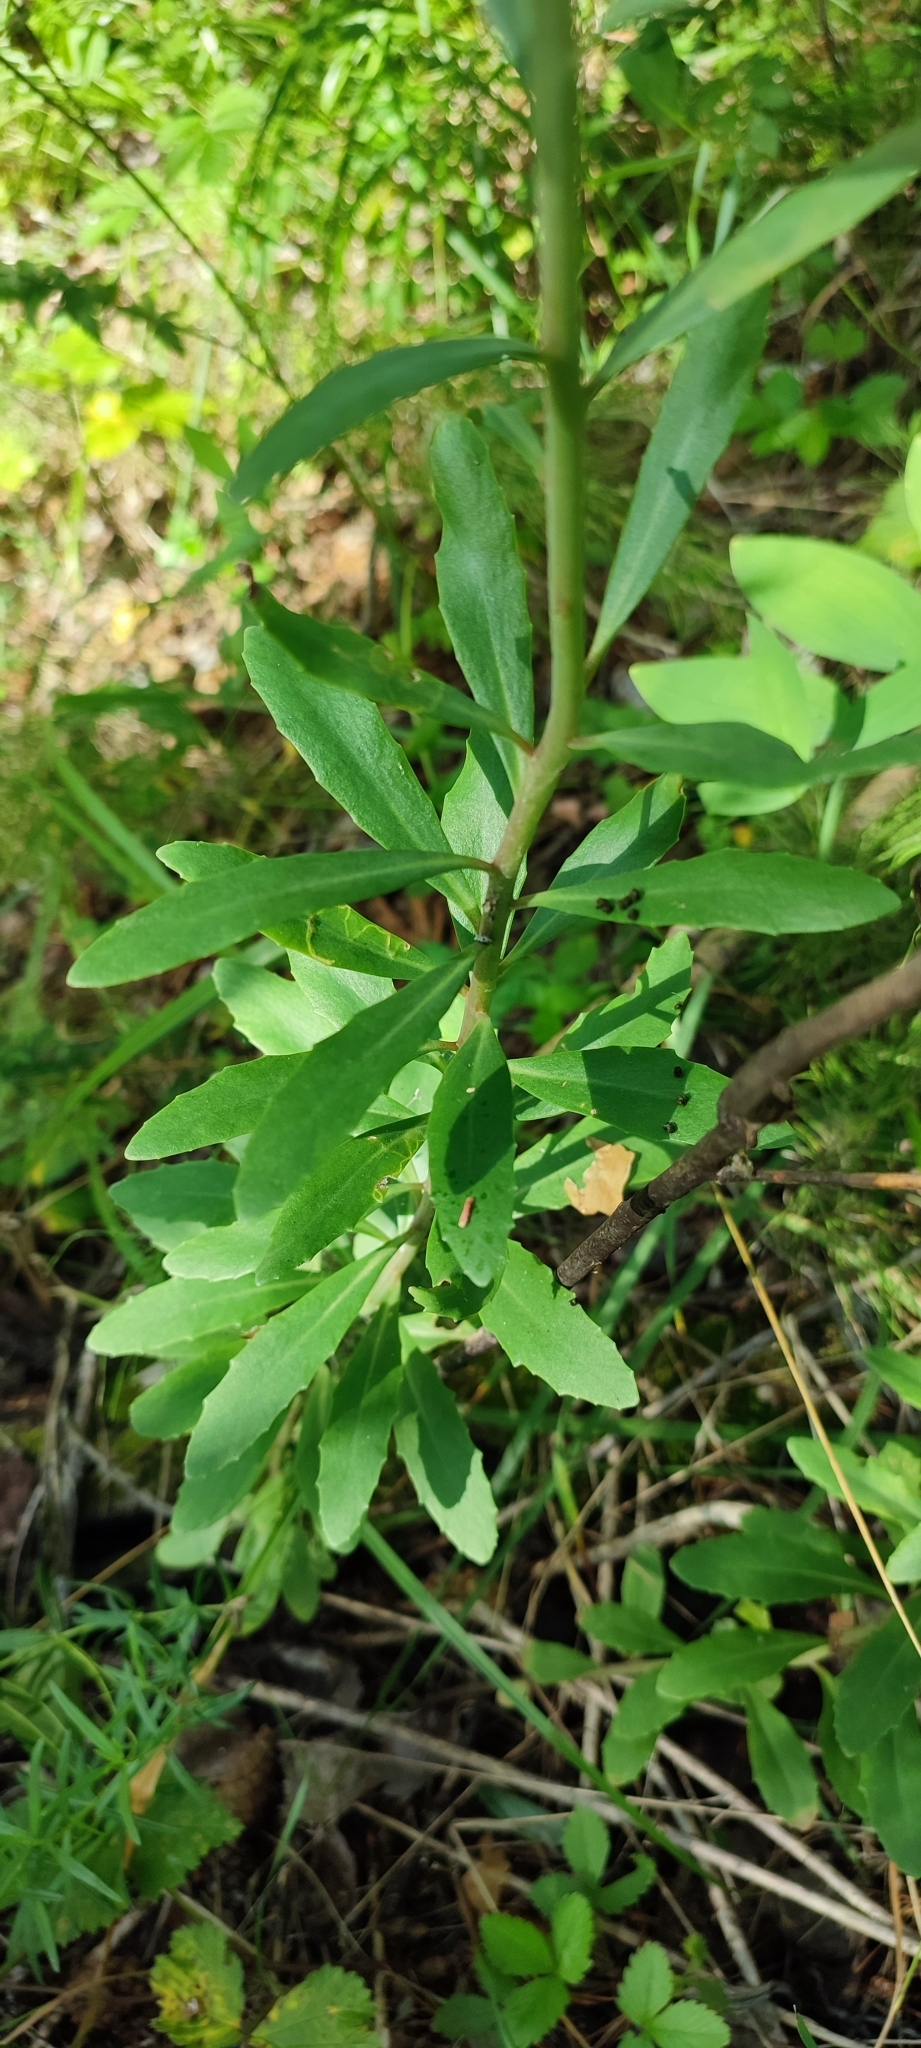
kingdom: Plantae
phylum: Tracheophyta
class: Magnoliopsida
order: Saxifragales
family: Crassulaceae
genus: Hylotelephium
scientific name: Hylotelephium telephium
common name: Live-forever
